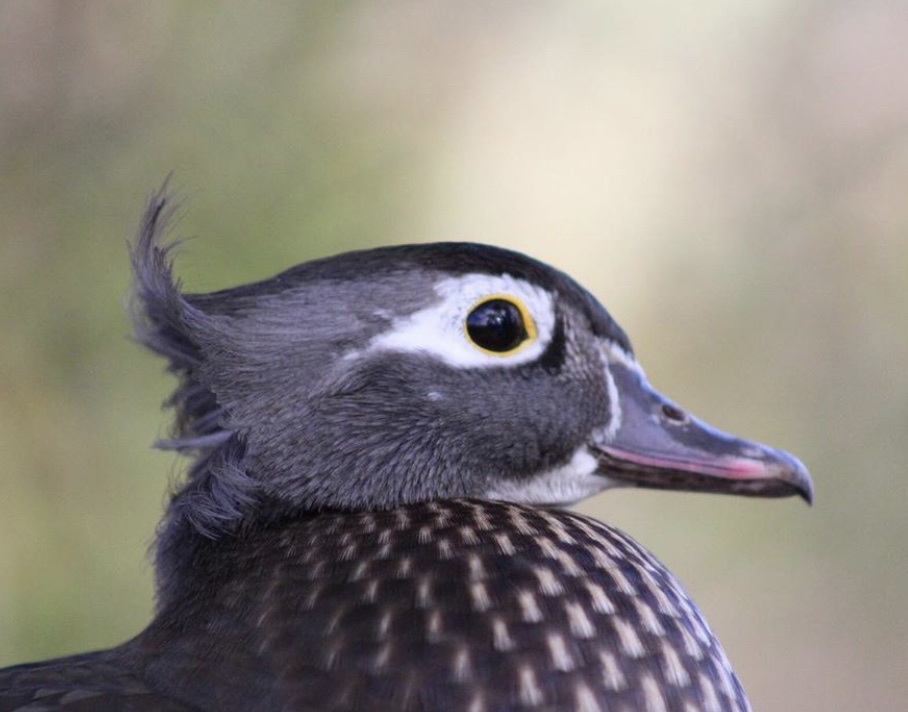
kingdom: Animalia
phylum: Chordata
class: Aves
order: Anseriformes
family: Anatidae
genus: Aix
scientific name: Aix sponsa
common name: Wood duck
